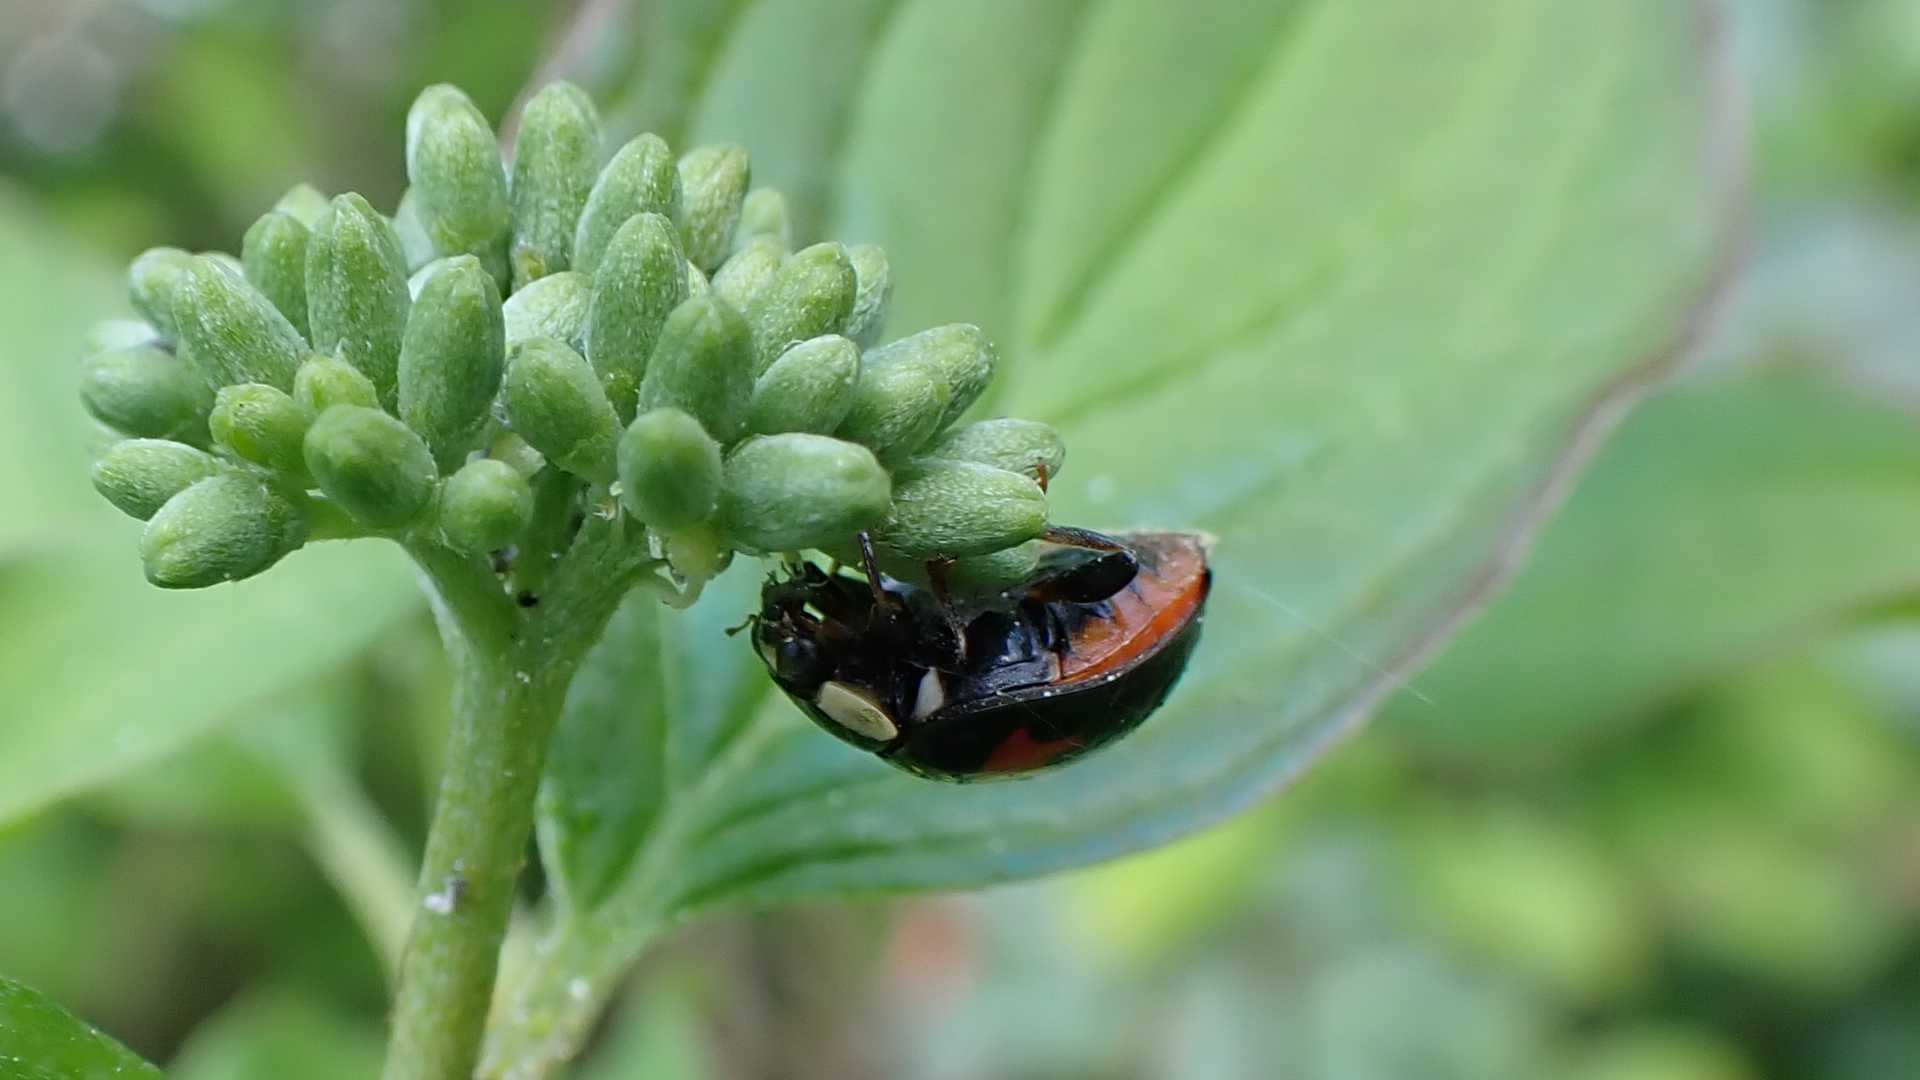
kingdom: Animalia
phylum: Arthropoda
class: Insecta
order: Coleoptera
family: Coccinellidae
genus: Harmonia
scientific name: Harmonia axyridis
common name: Harlequin ladybird
